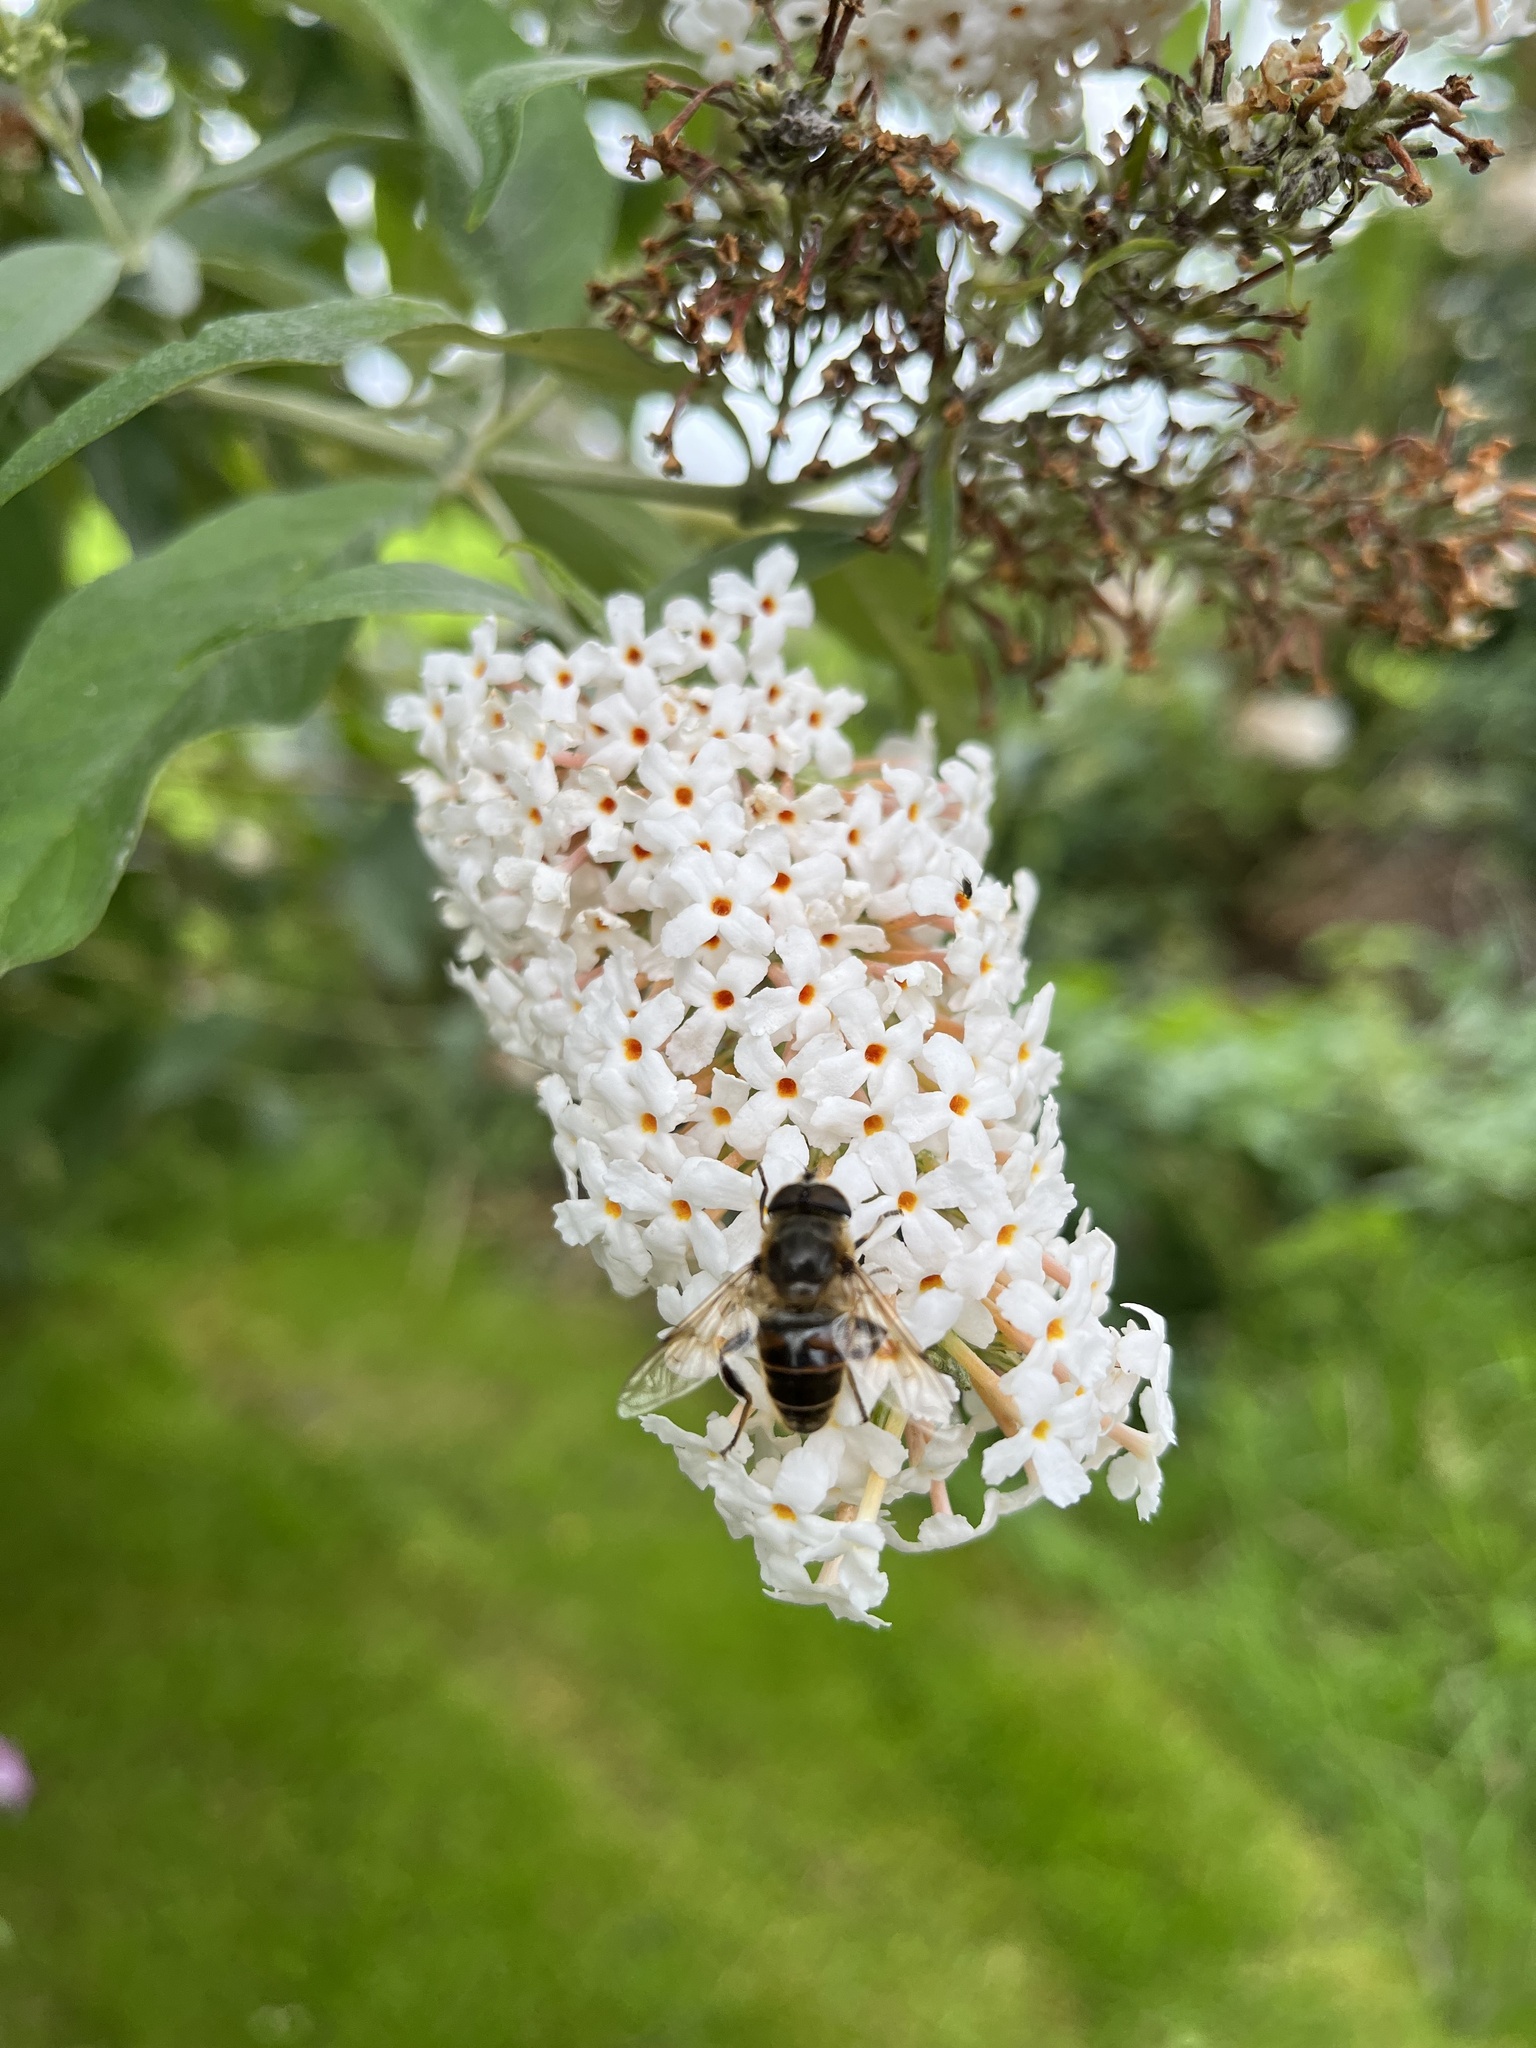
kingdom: Animalia
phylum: Arthropoda
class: Insecta
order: Diptera
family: Syrphidae
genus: Eristalis
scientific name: Eristalis tenax
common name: Drone fly
